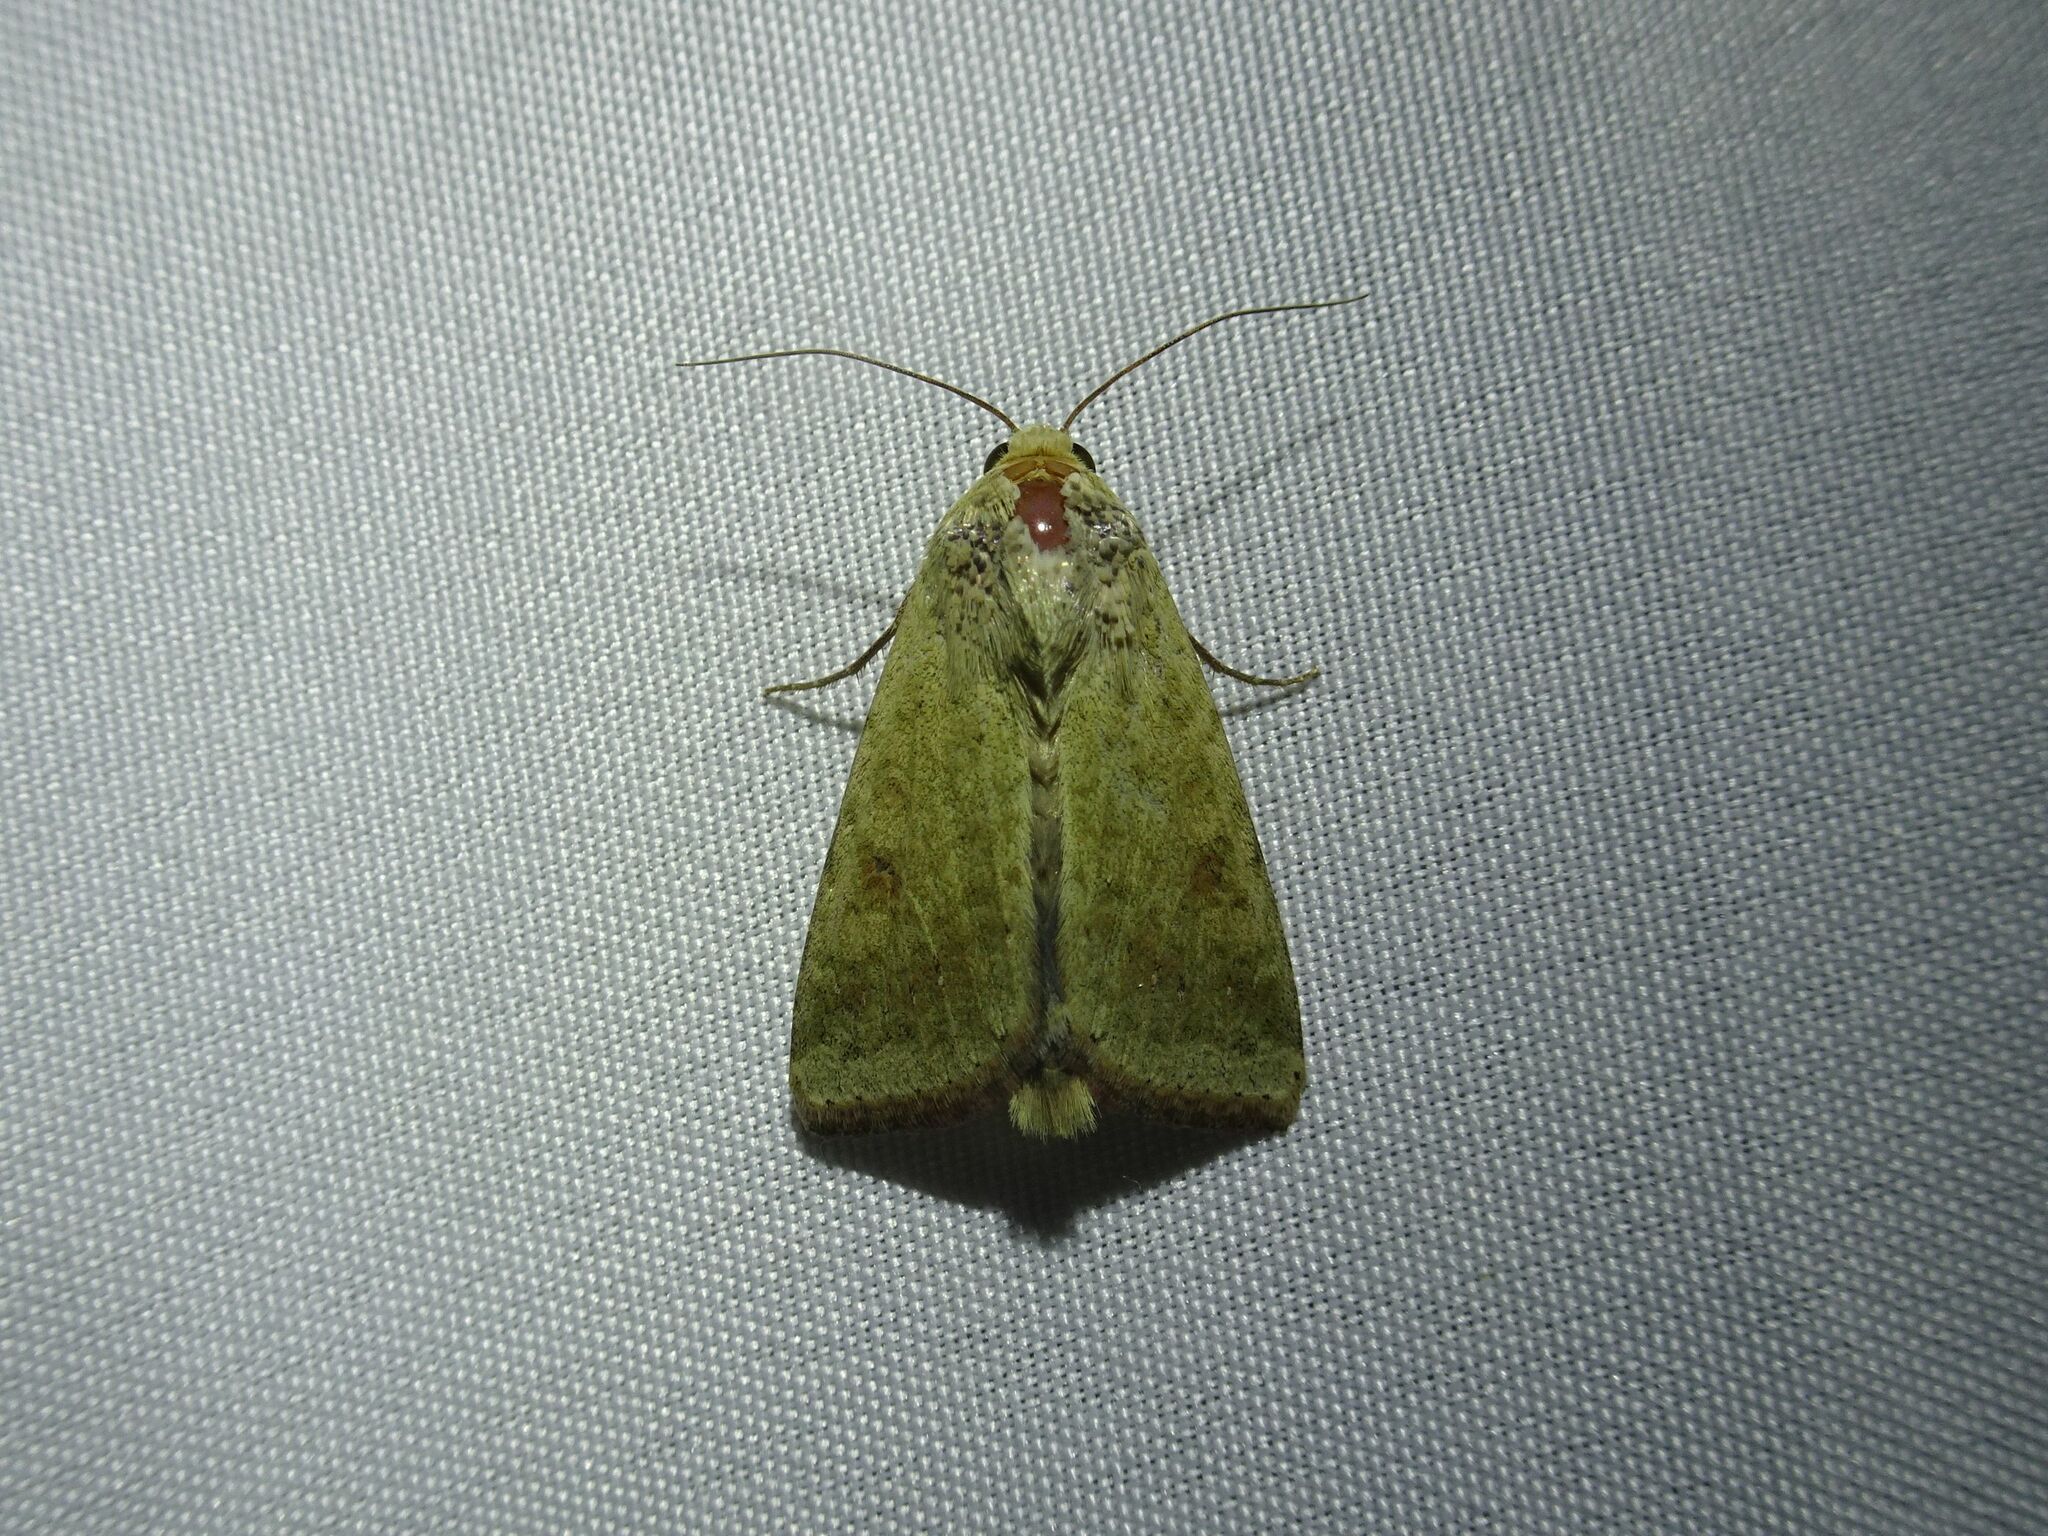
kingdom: Animalia
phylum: Arthropoda
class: Insecta
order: Lepidoptera
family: Noctuidae
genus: Helicoverpa
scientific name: Helicoverpa armigera
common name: Cotton bollworm
